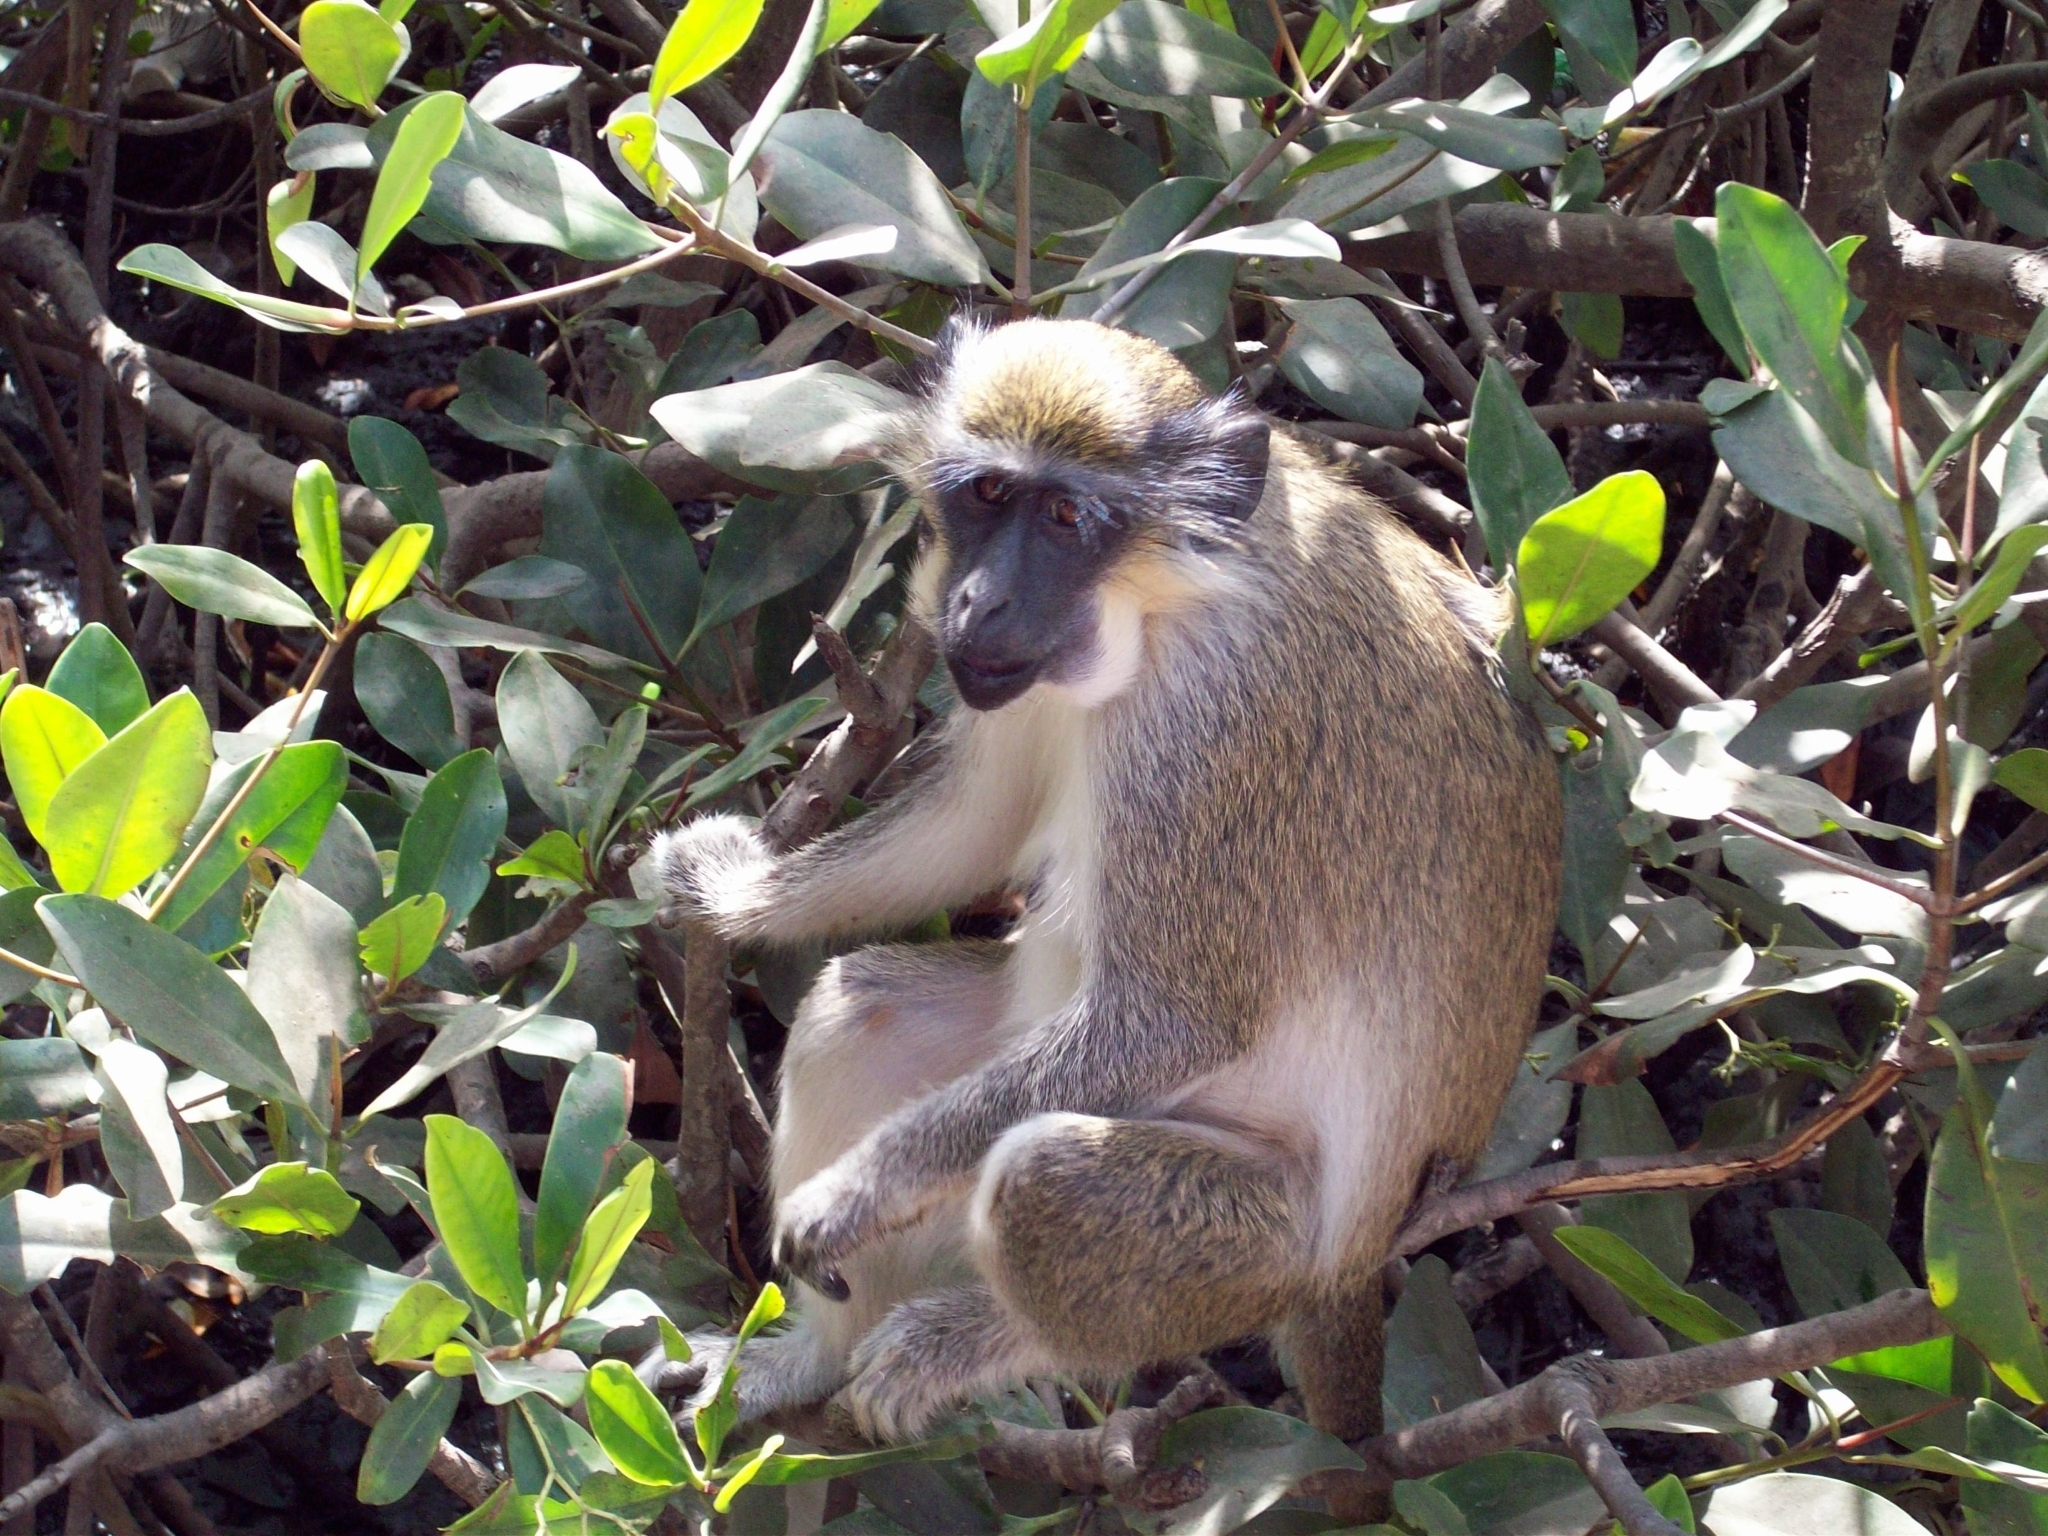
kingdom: Animalia
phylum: Chordata
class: Mammalia
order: Primates
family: Cercopithecidae
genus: Chlorocebus
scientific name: Chlorocebus sabaeus
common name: Green monkey
